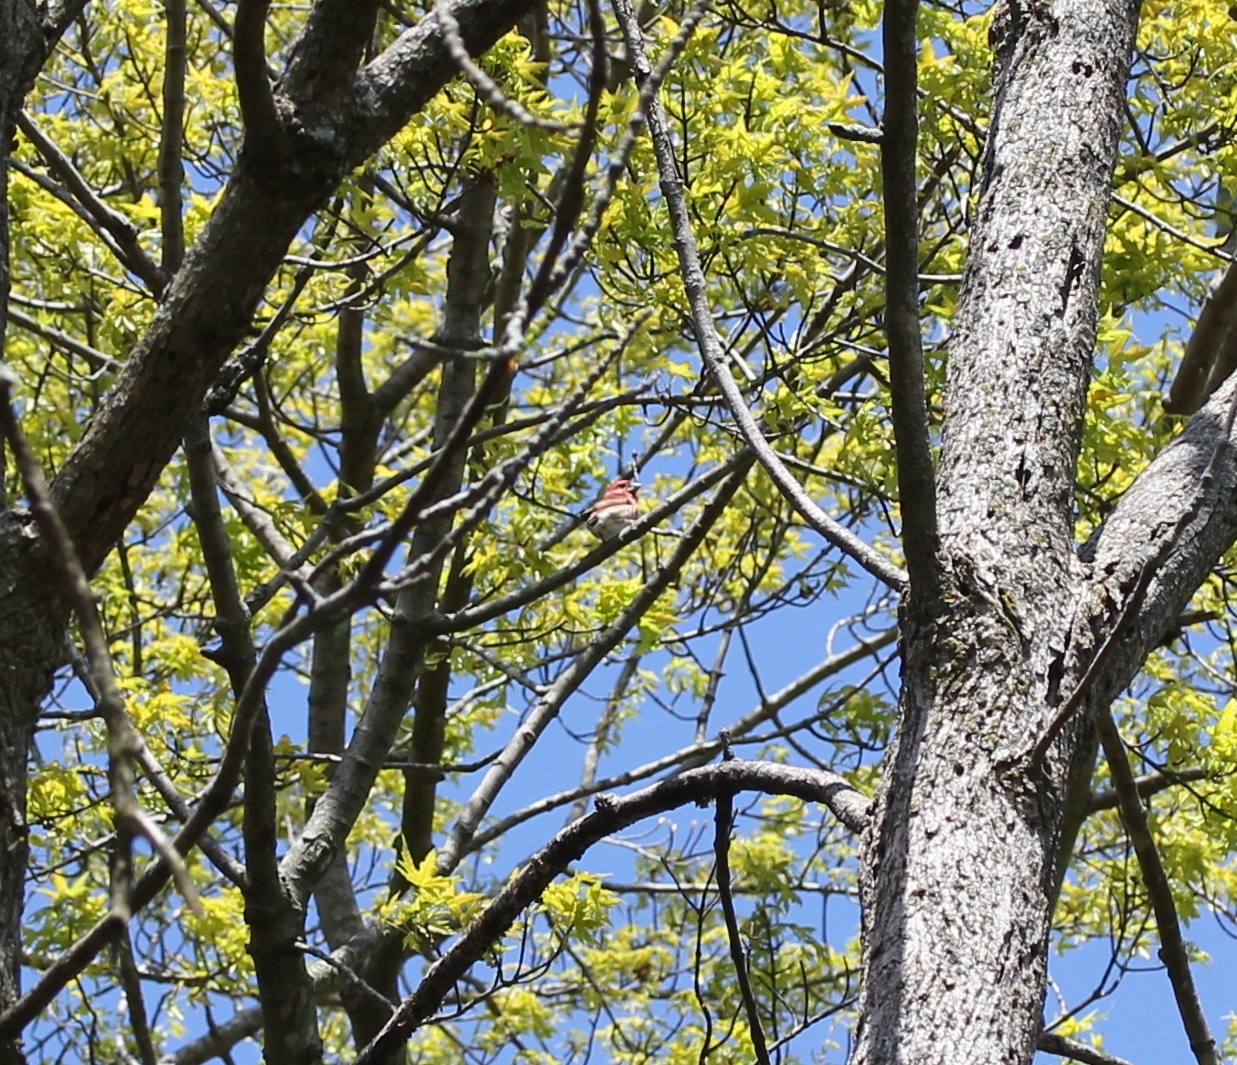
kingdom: Animalia
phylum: Chordata
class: Aves
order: Passeriformes
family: Fringillidae
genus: Haemorhous
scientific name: Haemorhous purpureus
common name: Purple finch
